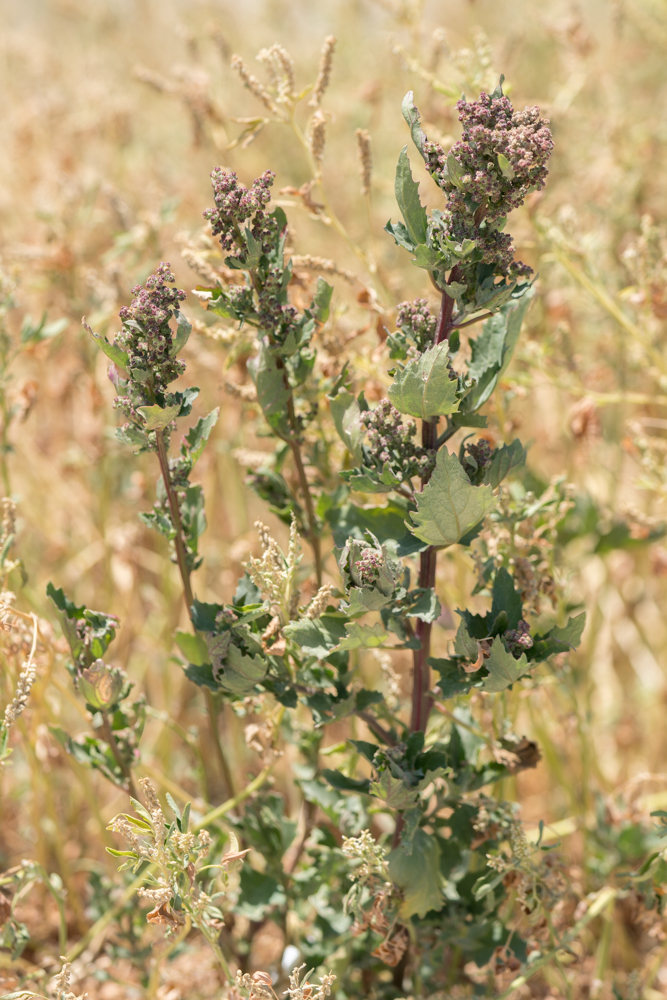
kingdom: Plantae
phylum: Tracheophyta
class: Magnoliopsida
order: Caryophyllales
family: Amaranthaceae
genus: Chenopodiastrum
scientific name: Chenopodiastrum murale
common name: Sowbane
